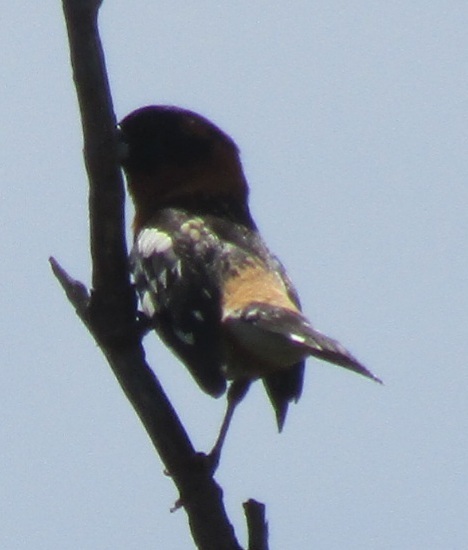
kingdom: Animalia
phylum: Chordata
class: Aves
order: Passeriformes
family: Cardinalidae
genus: Pheucticus
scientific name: Pheucticus melanocephalus
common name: Black-headed grosbeak
